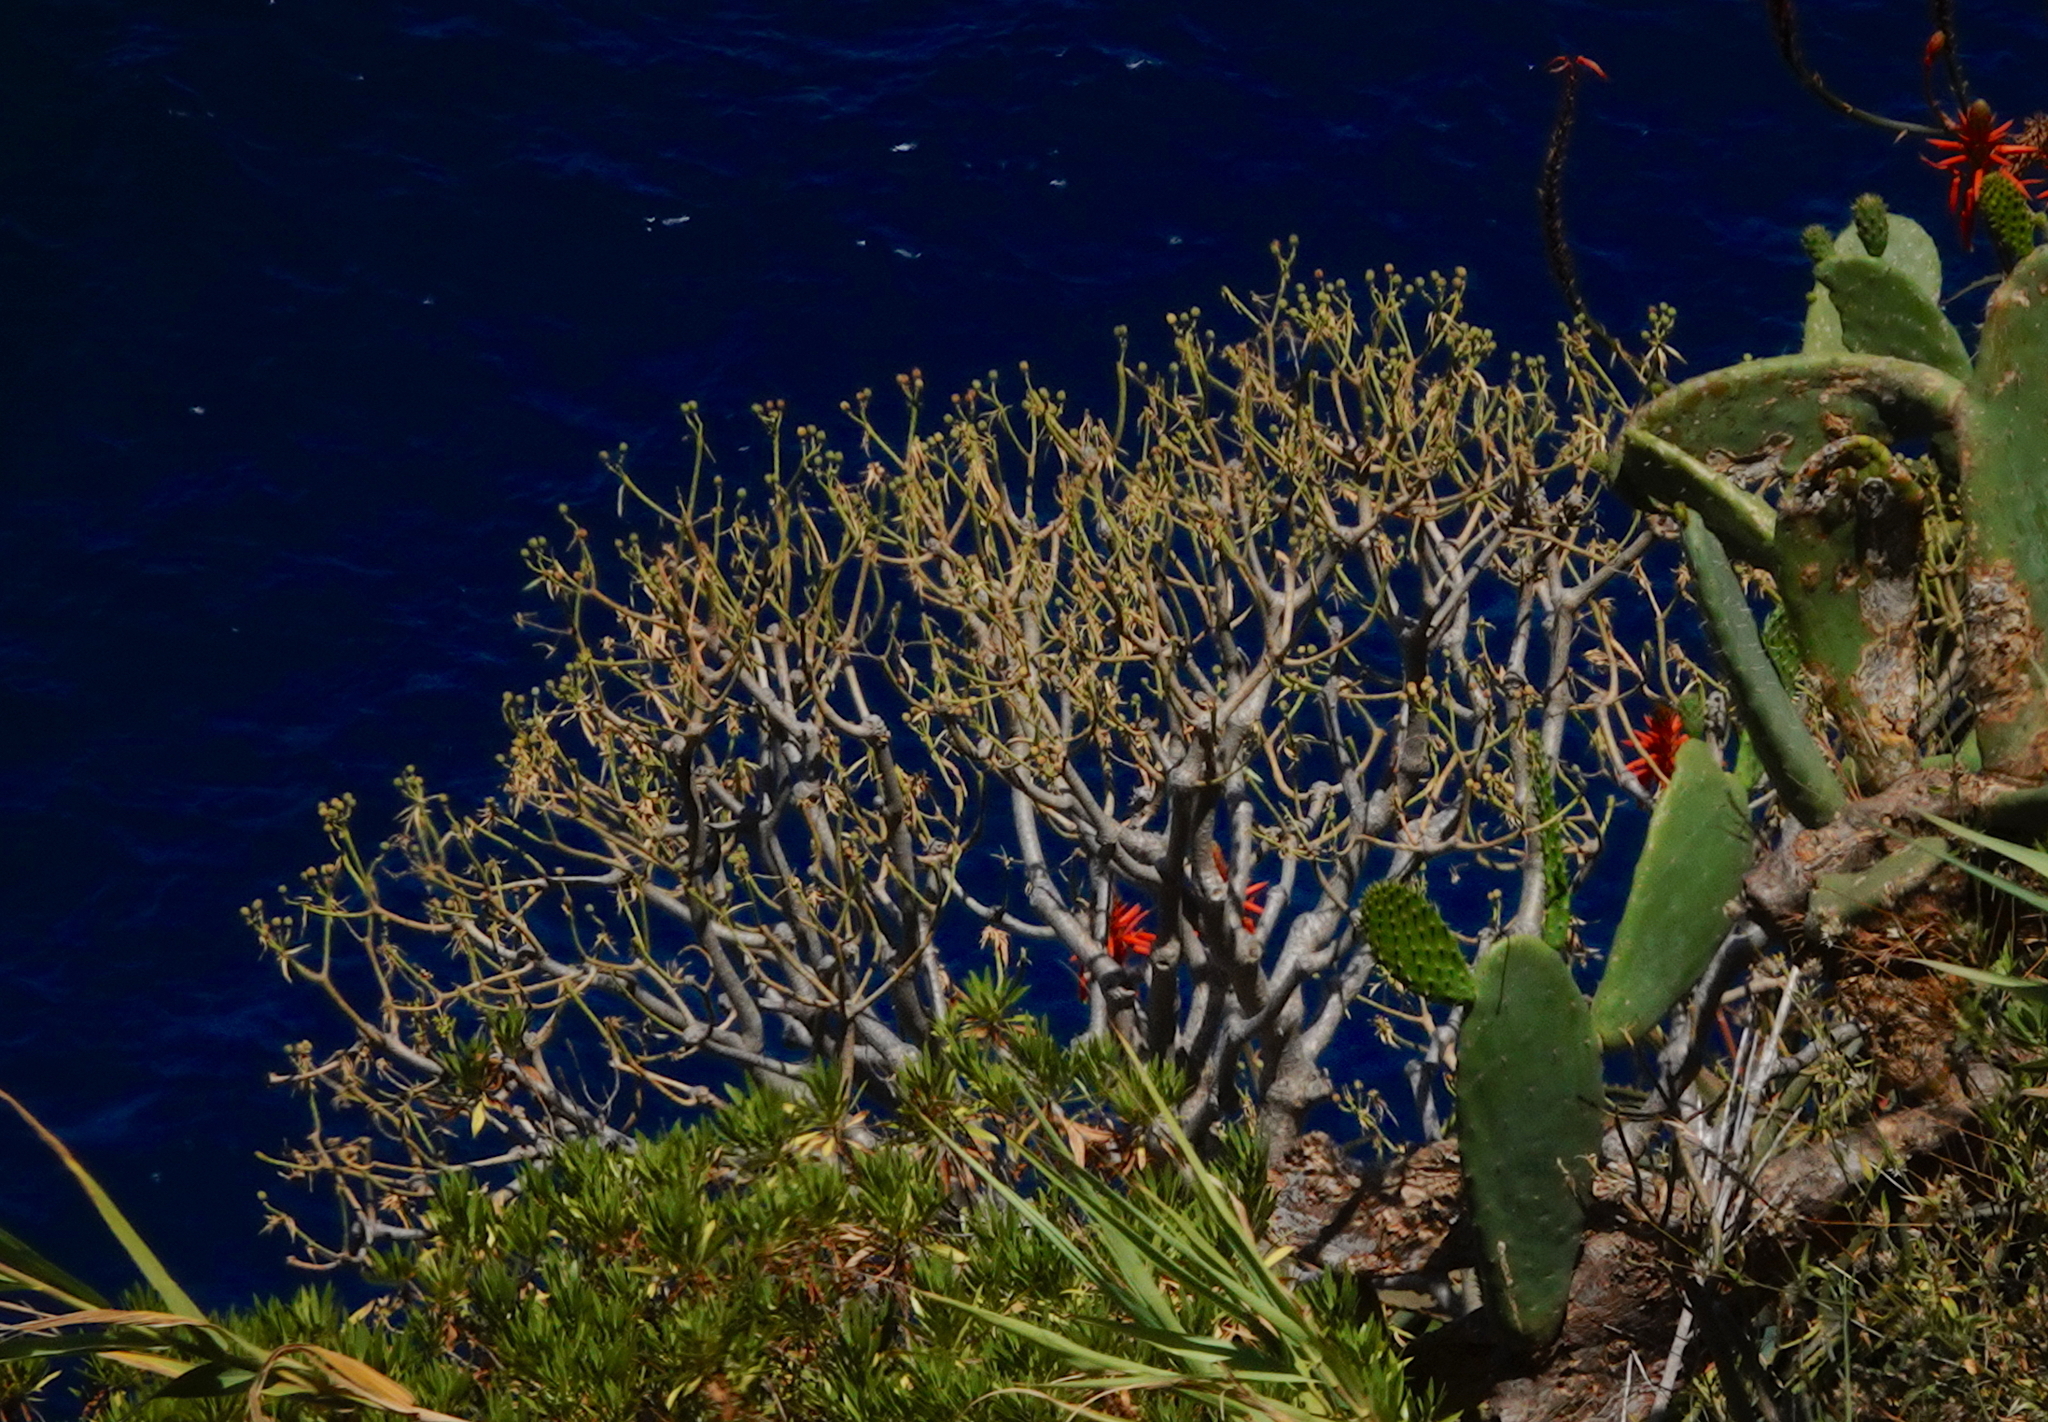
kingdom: Plantae
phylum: Tracheophyta
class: Magnoliopsida
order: Malpighiales
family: Euphorbiaceae
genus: Euphorbia
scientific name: Euphorbia piscatoria
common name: Fish-stunning spurge
